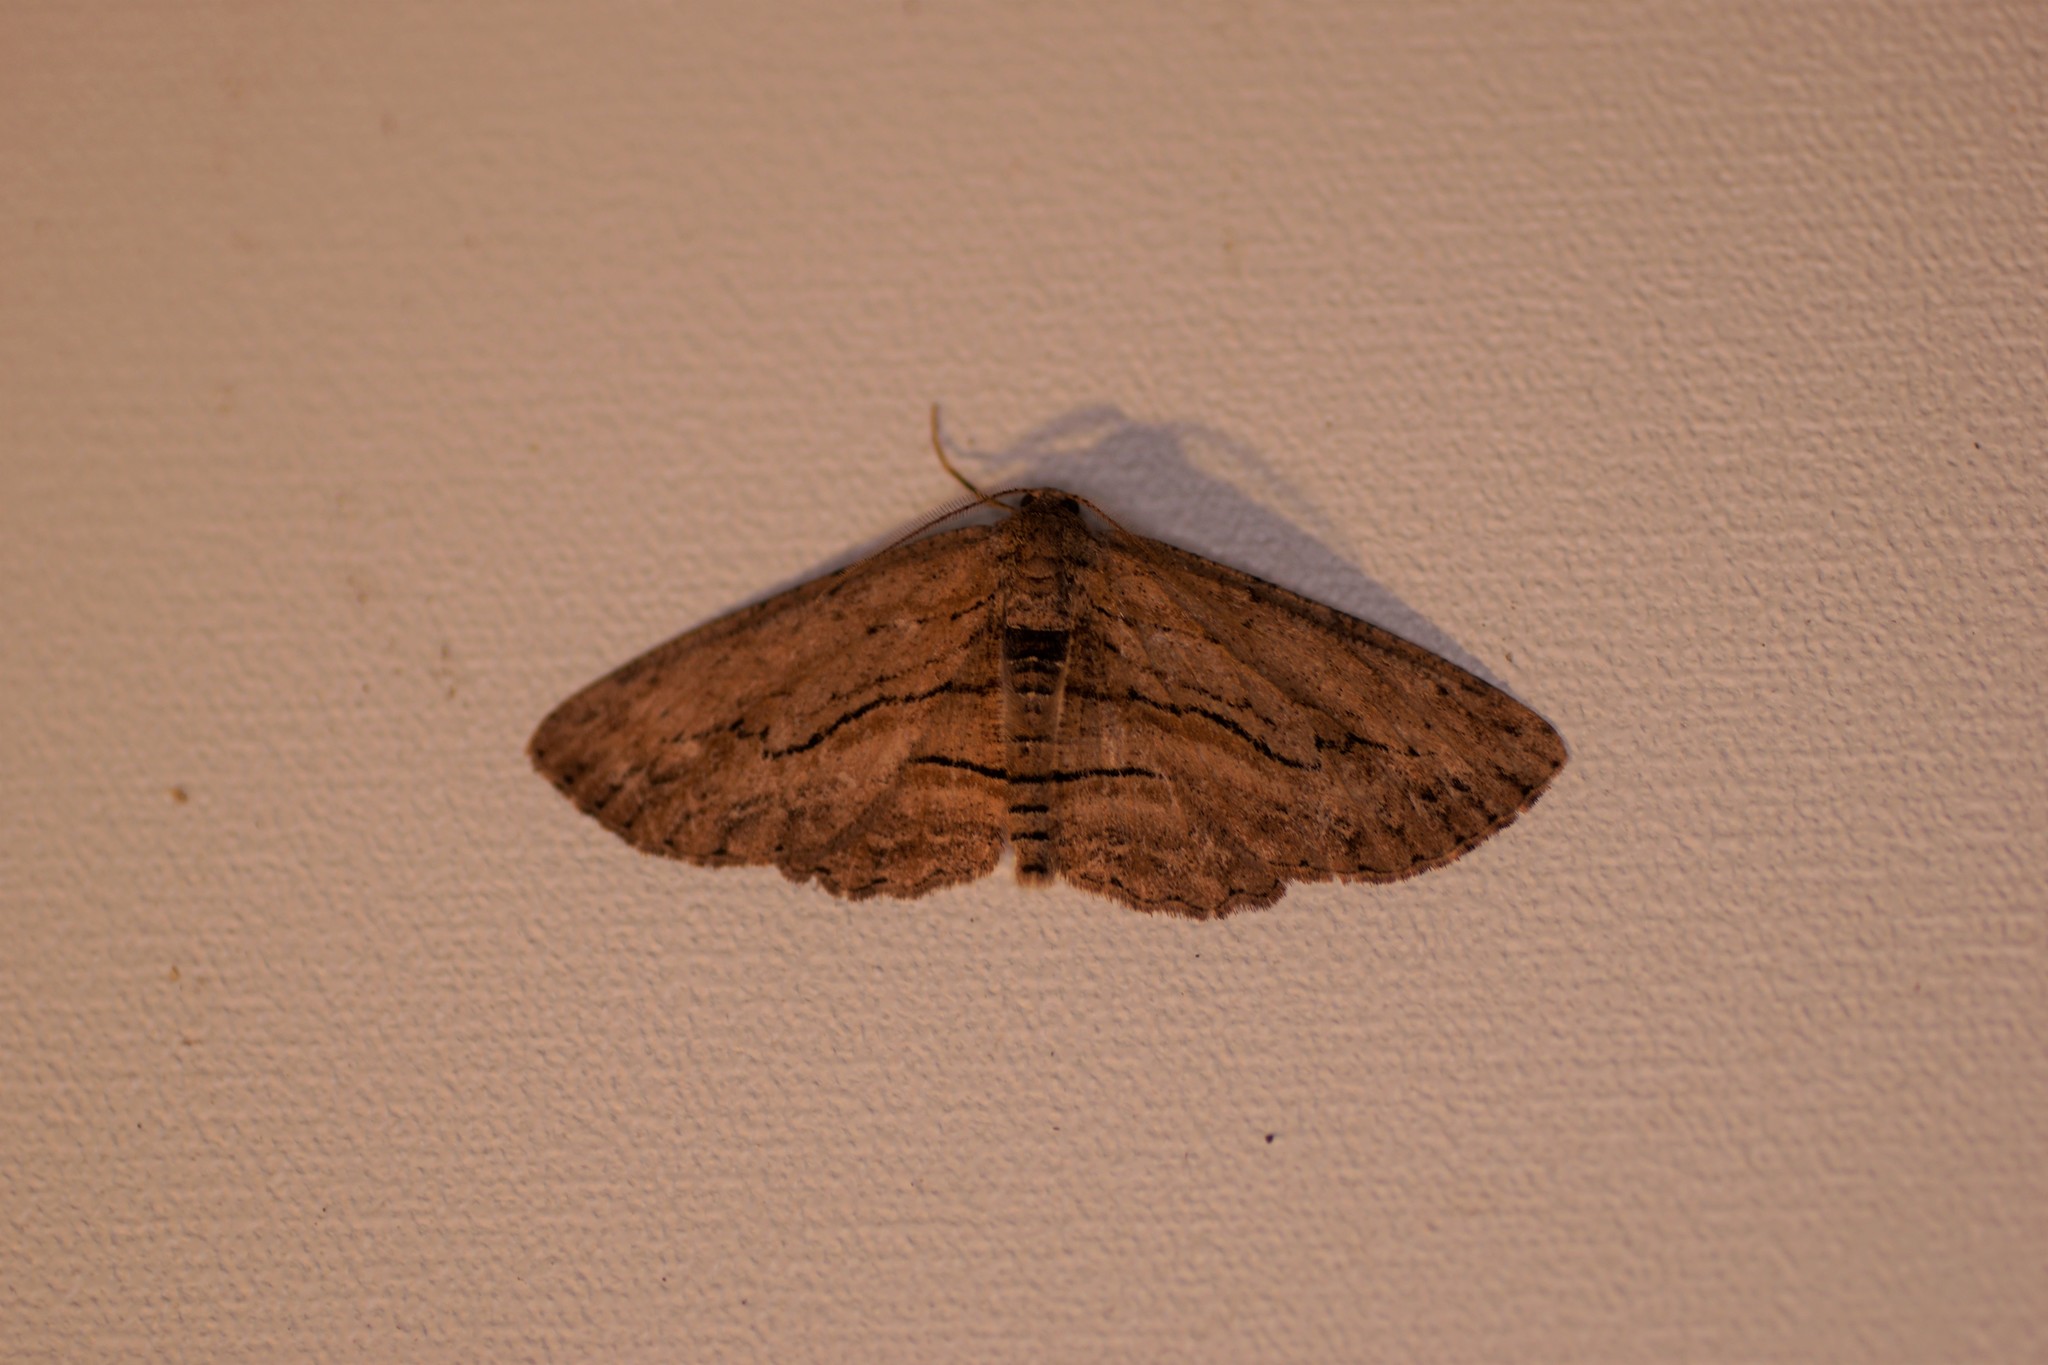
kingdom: Animalia
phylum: Arthropoda
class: Insecta
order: Lepidoptera
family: Geometridae
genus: Ectropis
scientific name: Ectropis excursaria
